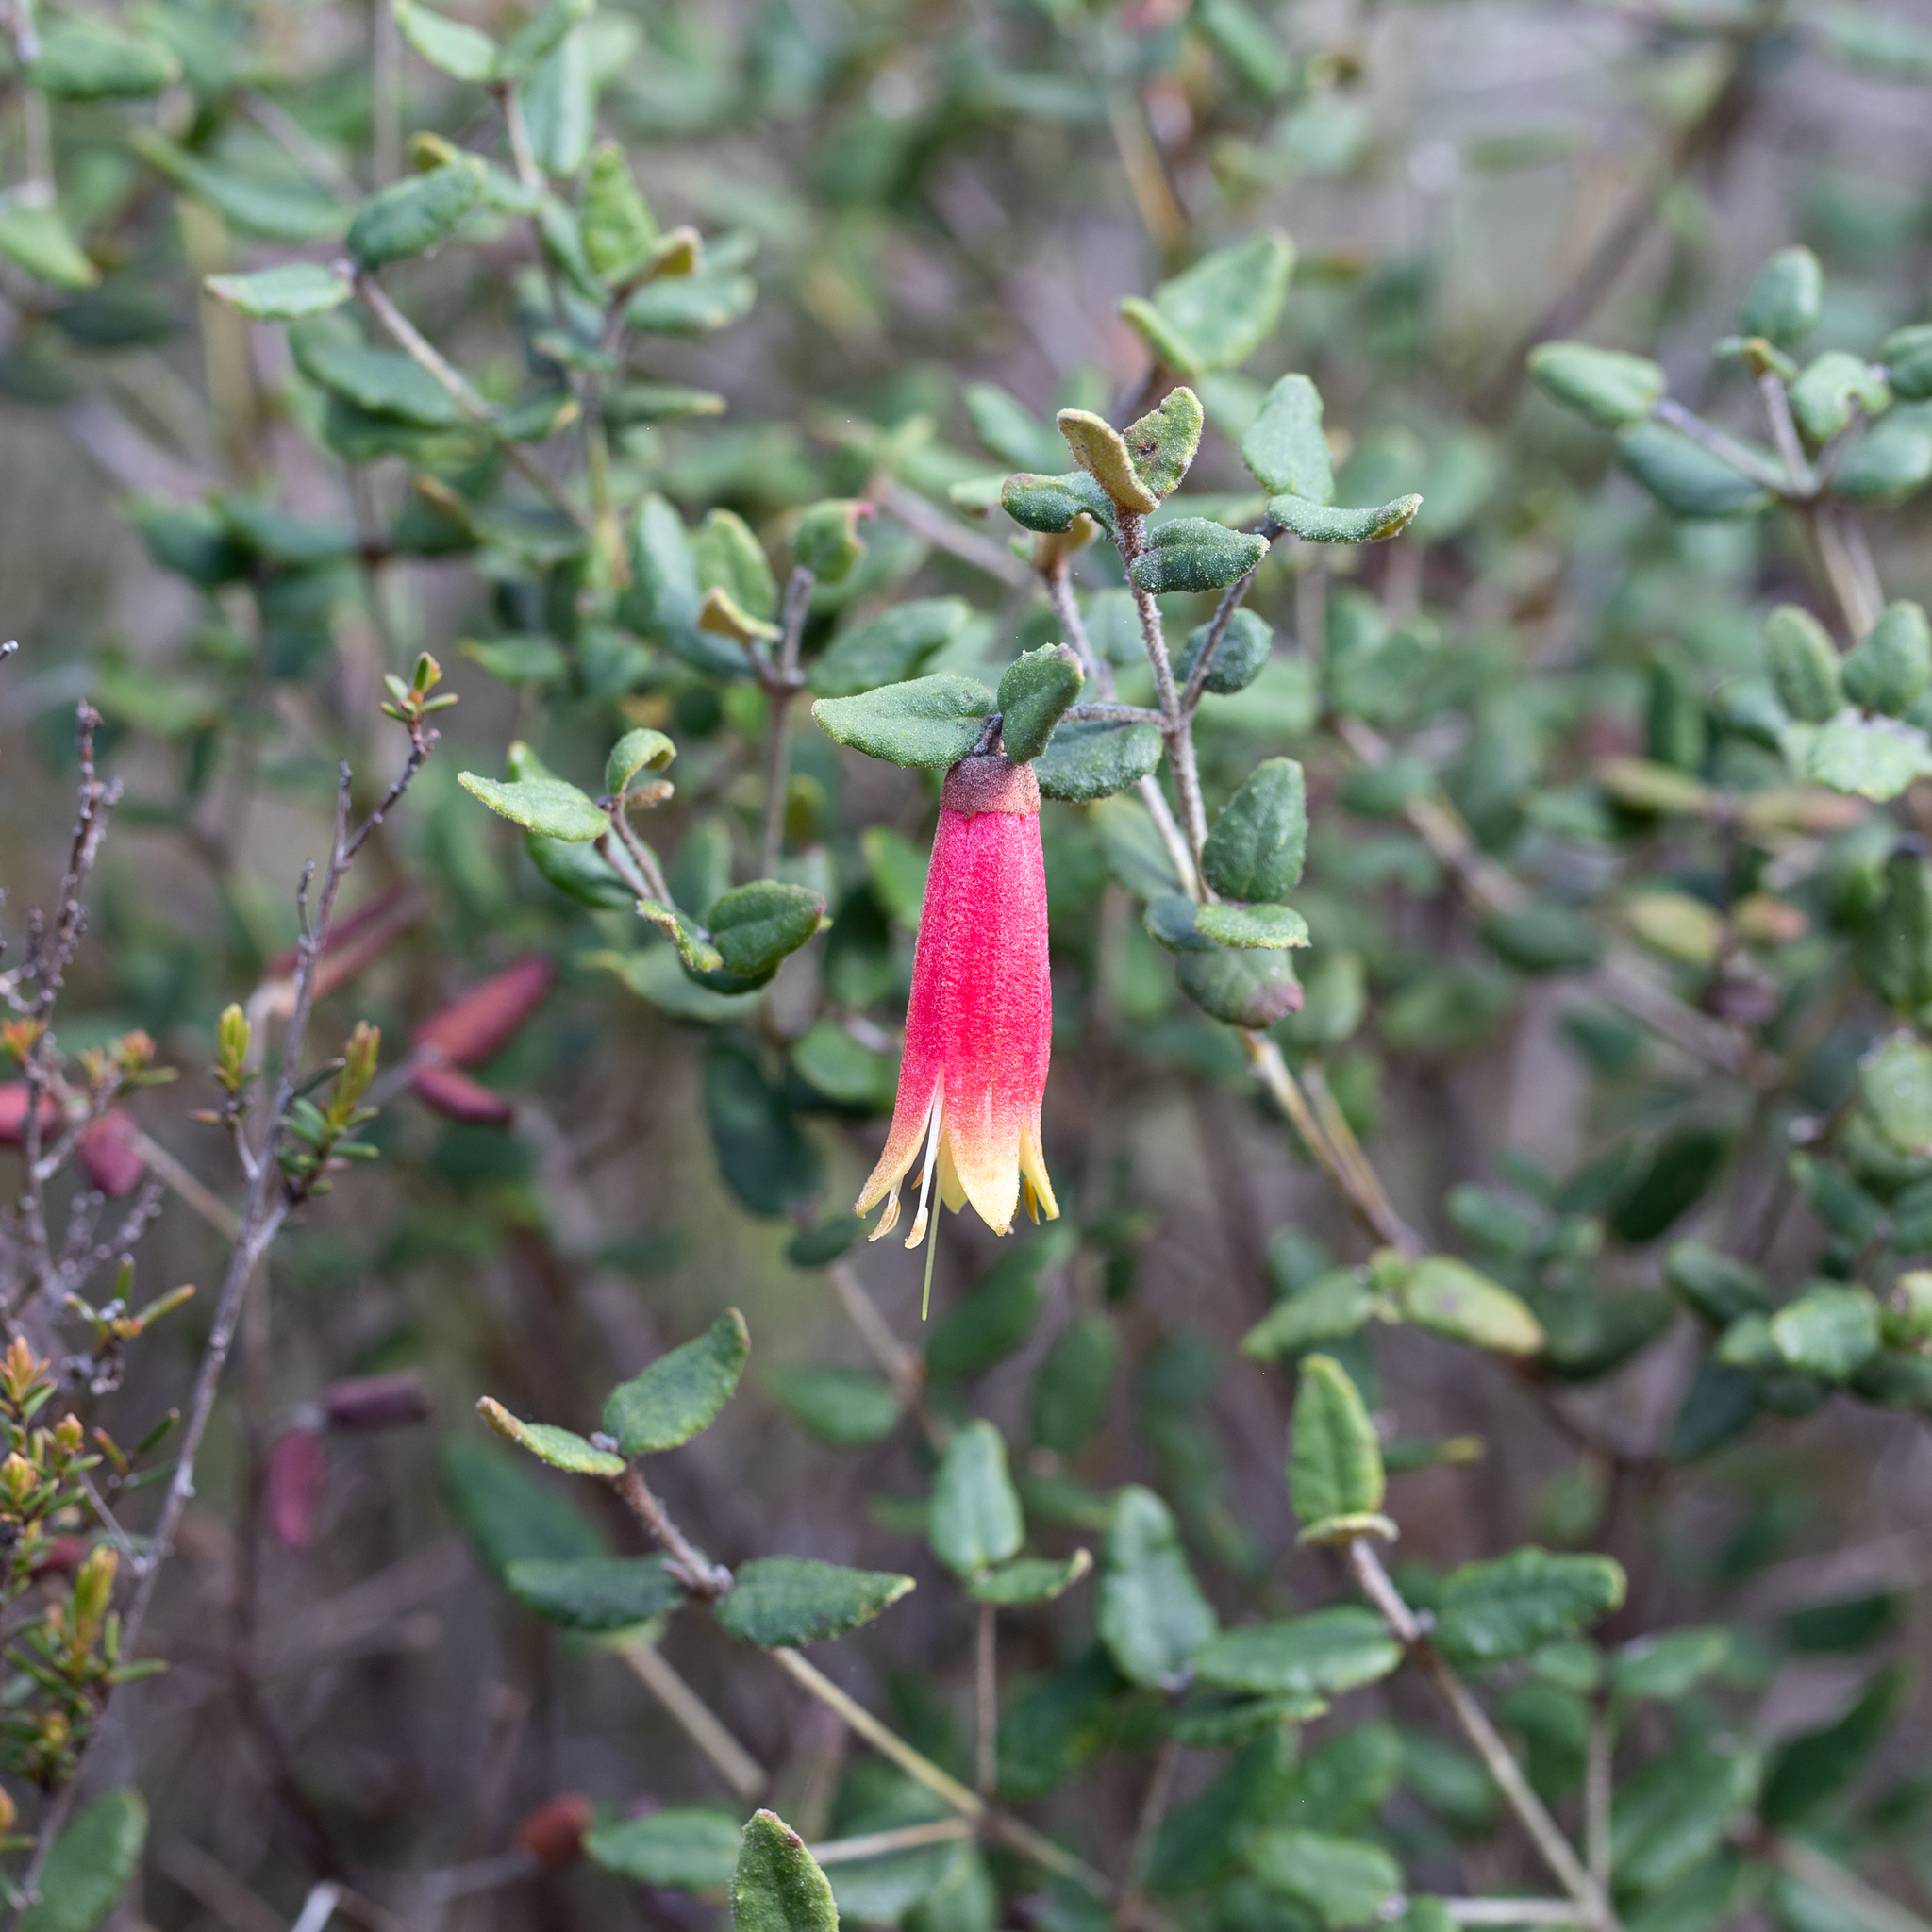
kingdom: Plantae
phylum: Tracheophyta
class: Magnoliopsida
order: Sapindales
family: Rutaceae
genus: Correa
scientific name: Correa reflexa
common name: Common correa
